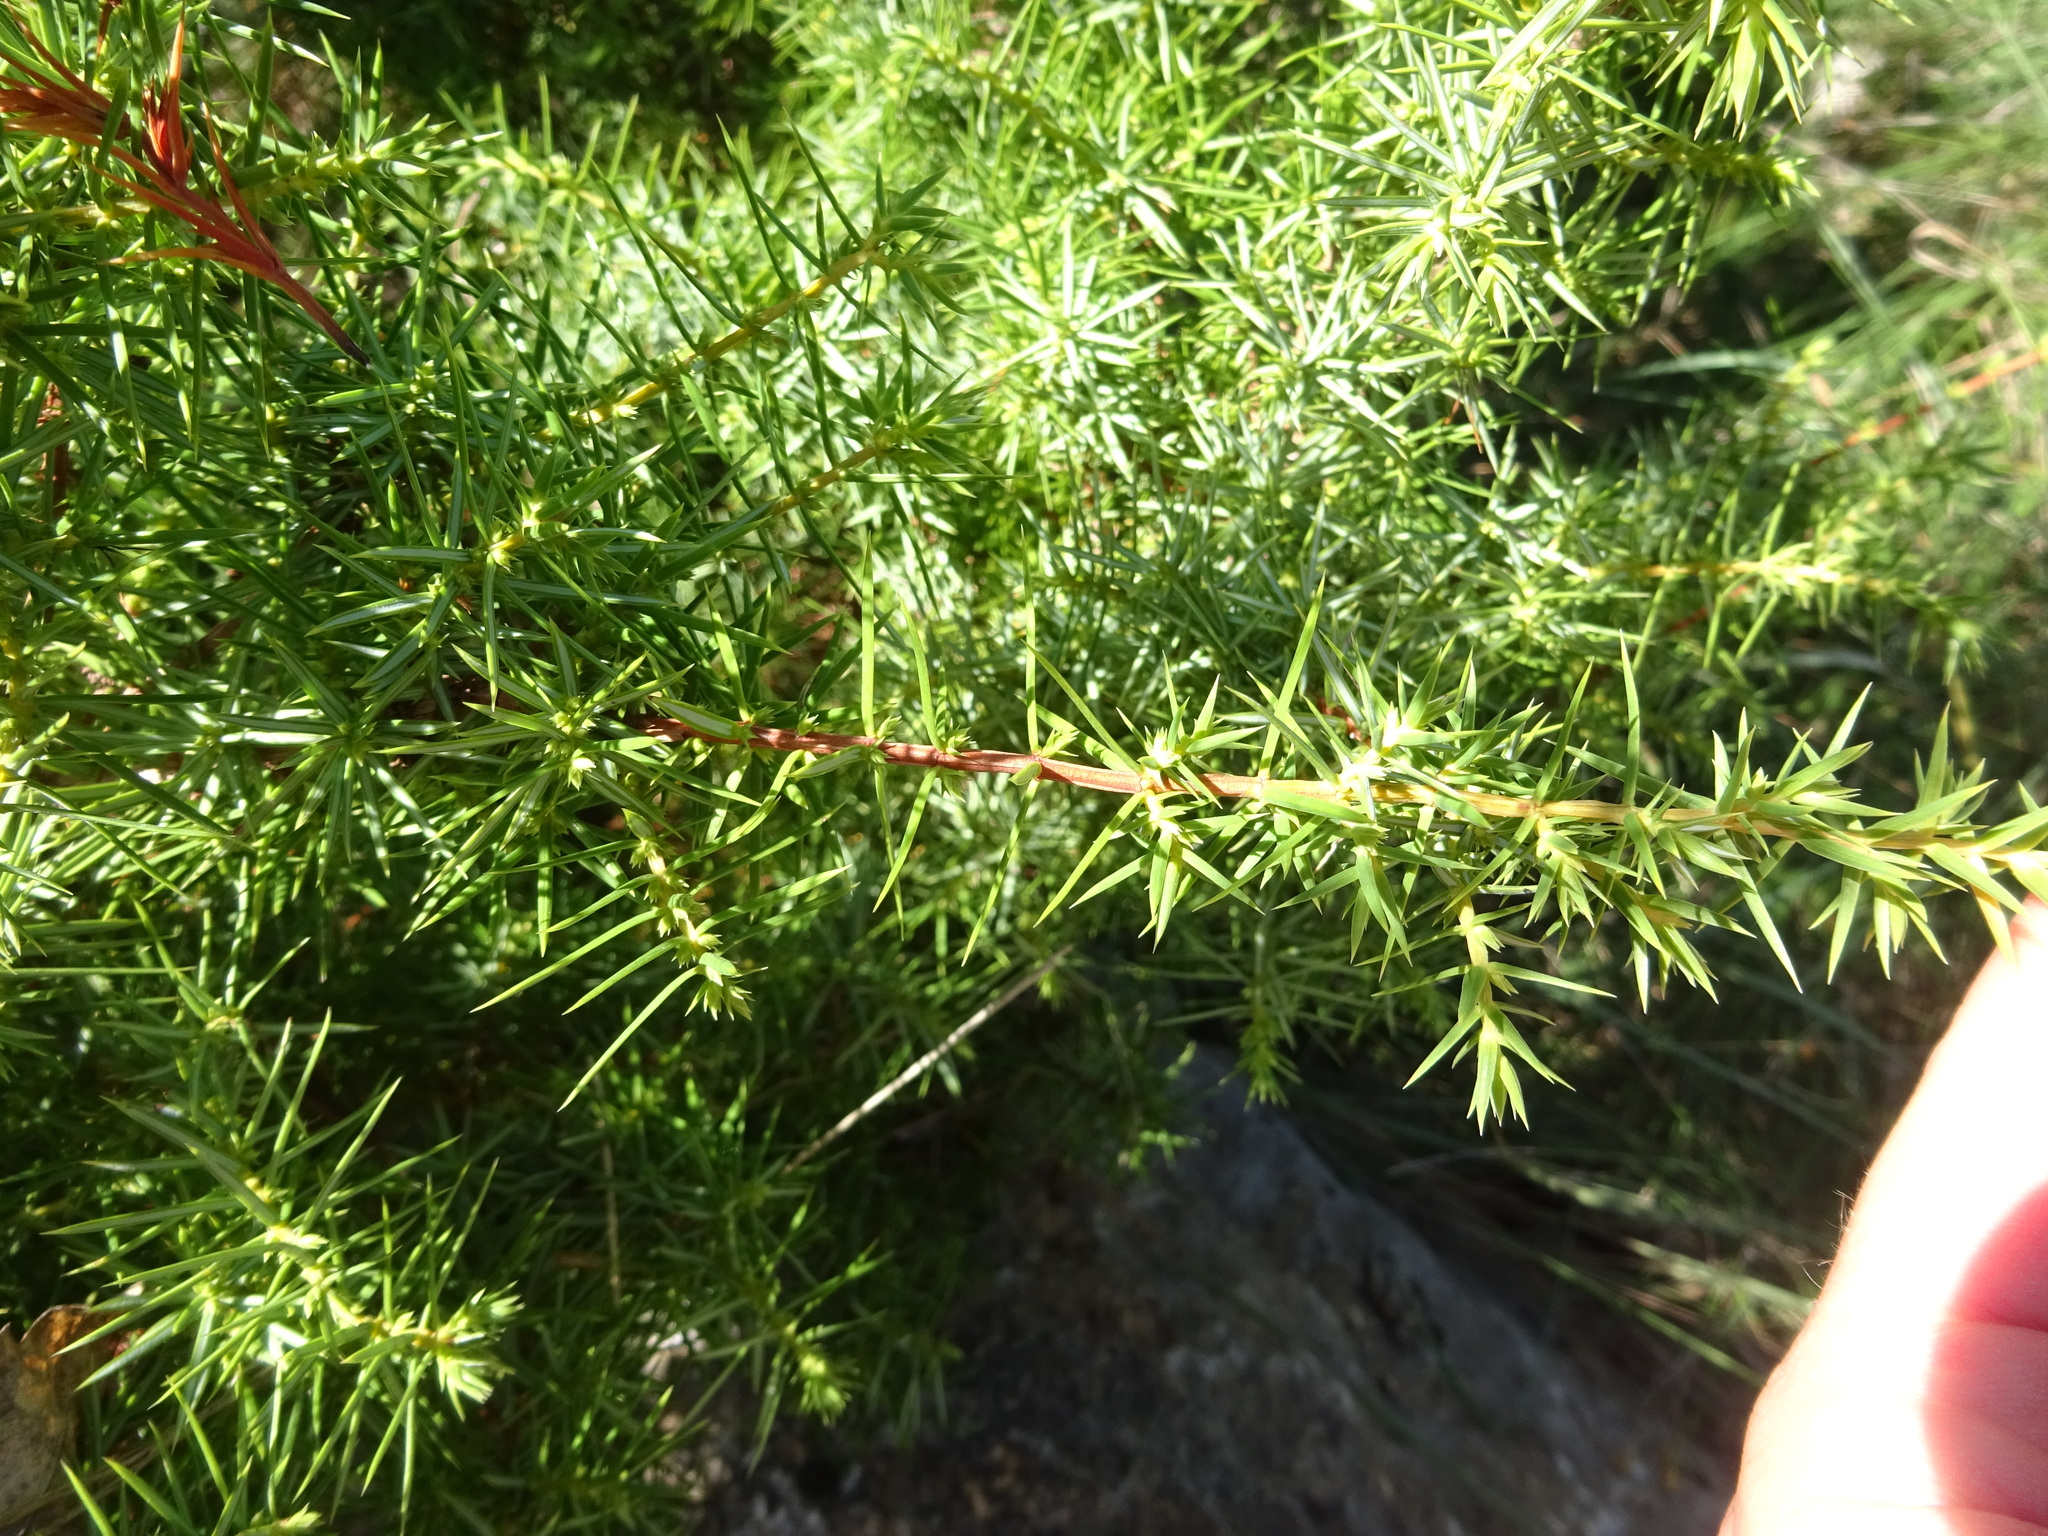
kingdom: Plantae
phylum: Tracheophyta
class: Pinopsida
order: Pinales
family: Cupressaceae
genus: Juniperus
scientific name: Juniperus communis
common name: Common juniper
